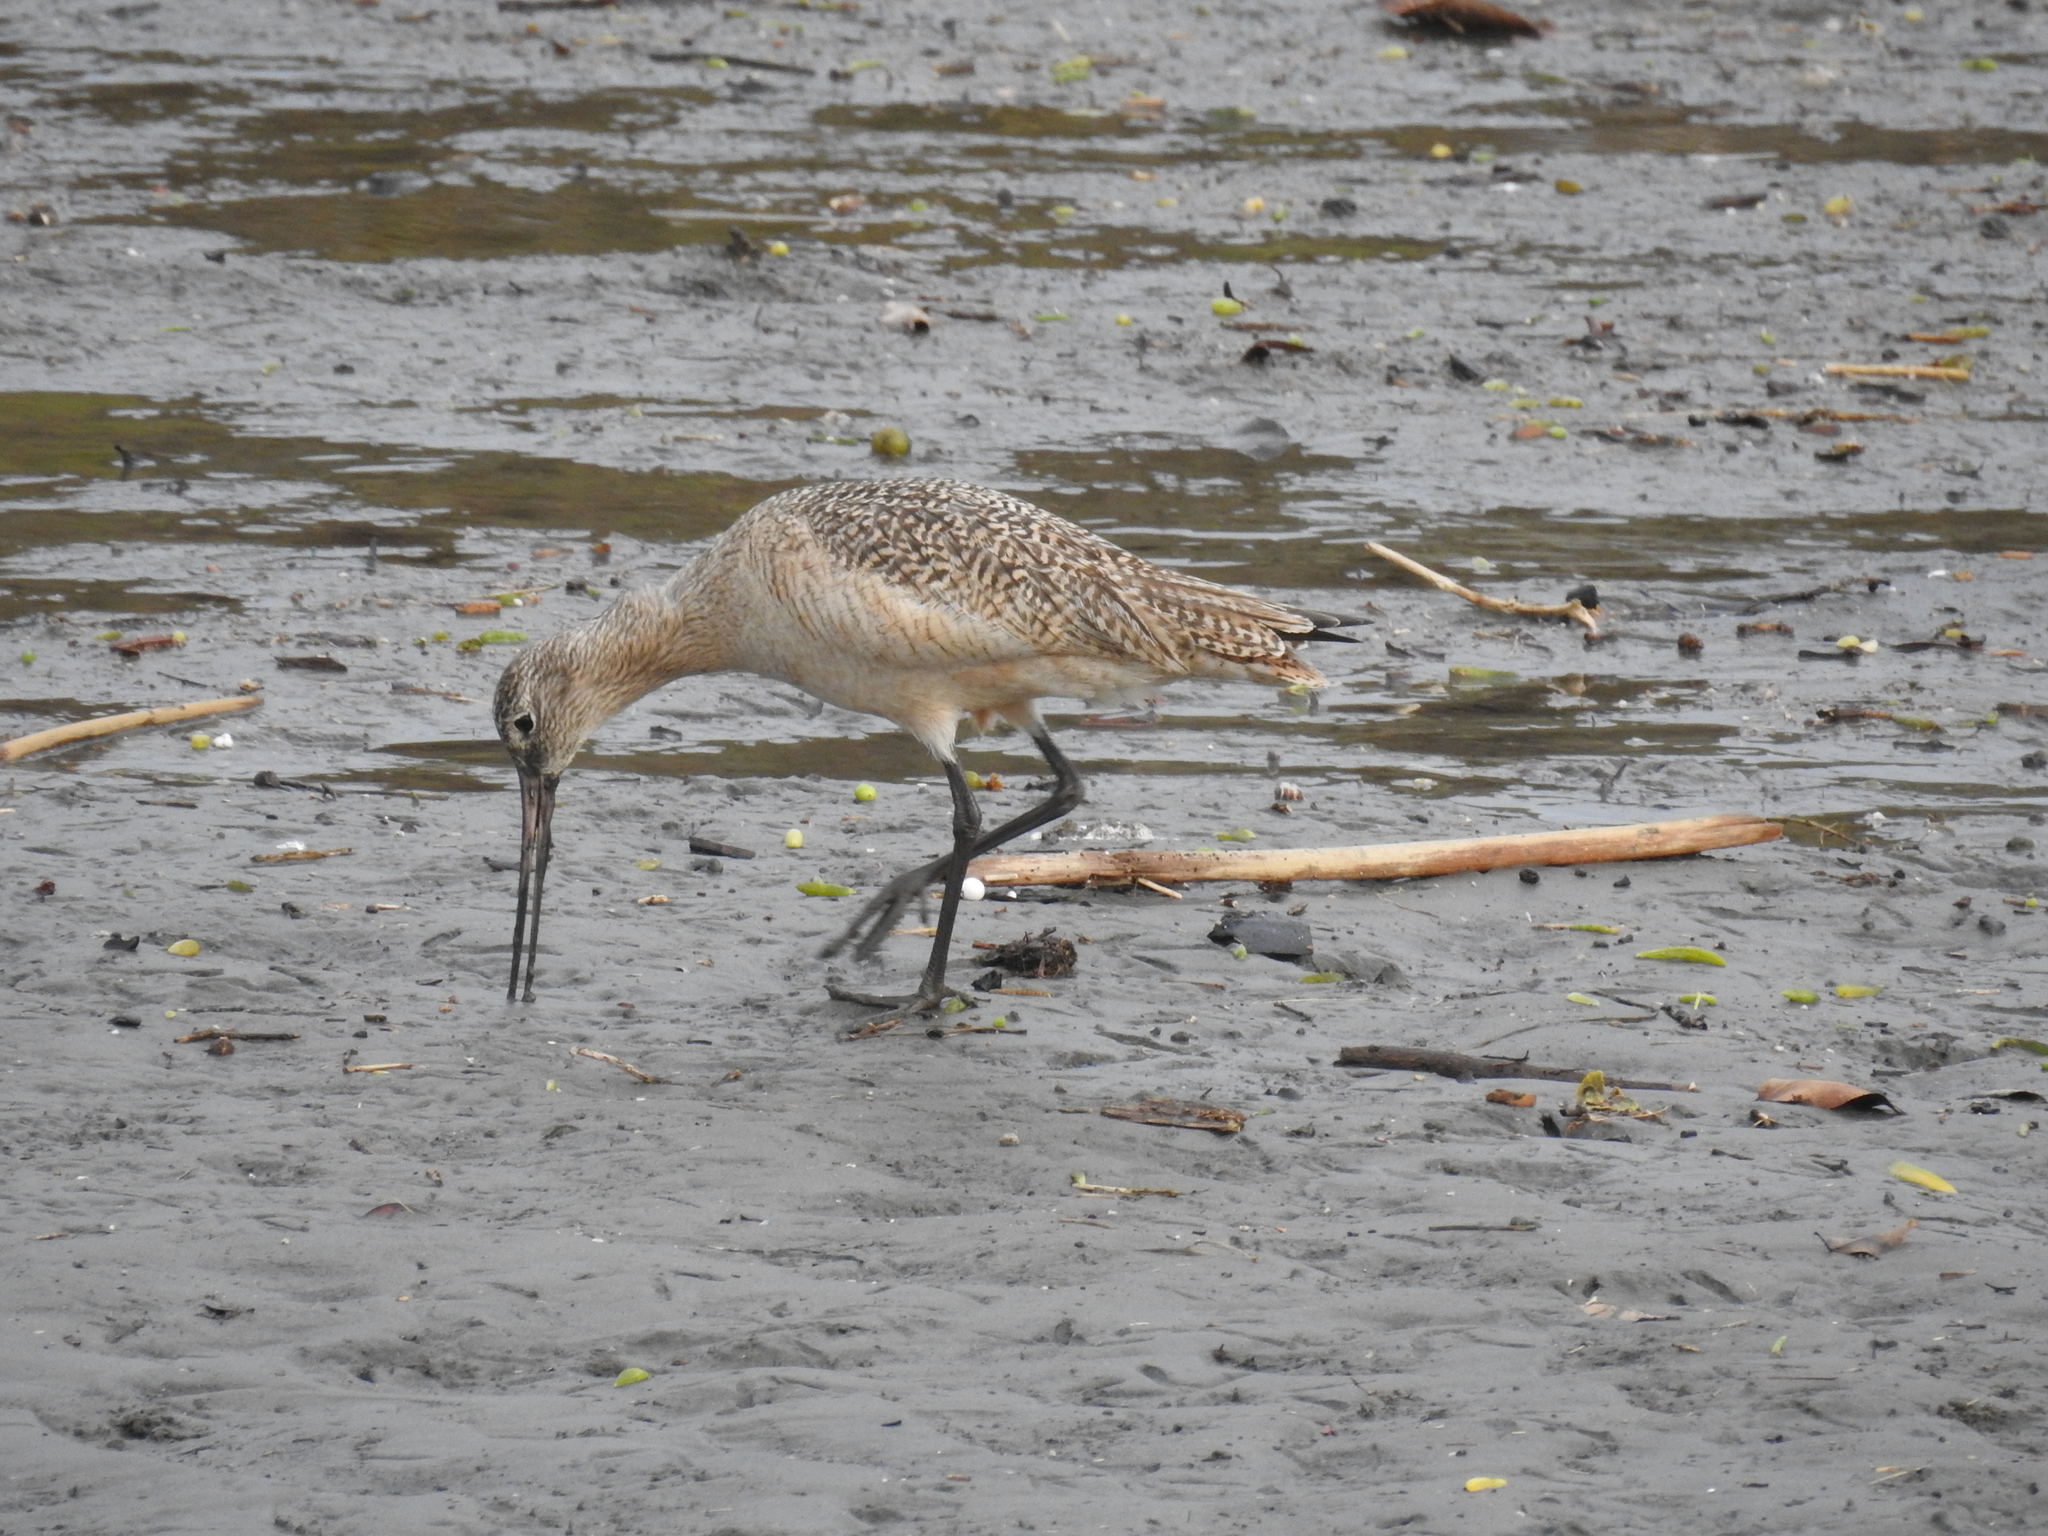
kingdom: Animalia
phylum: Chordata
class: Aves
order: Charadriiformes
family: Scolopacidae
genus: Limosa
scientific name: Limosa fedoa
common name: Marbled godwit
